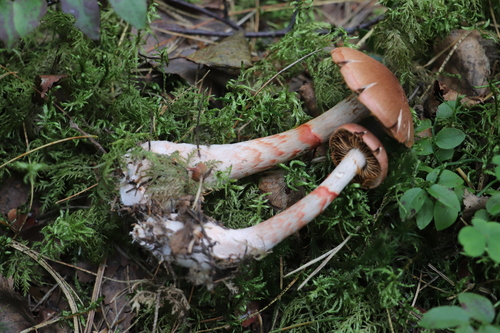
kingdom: Fungi
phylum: Basidiomycota
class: Agaricomycetes
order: Agaricales
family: Cortinariaceae
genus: Cortinarius
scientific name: Cortinarius armillatus
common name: Red banded webcap
